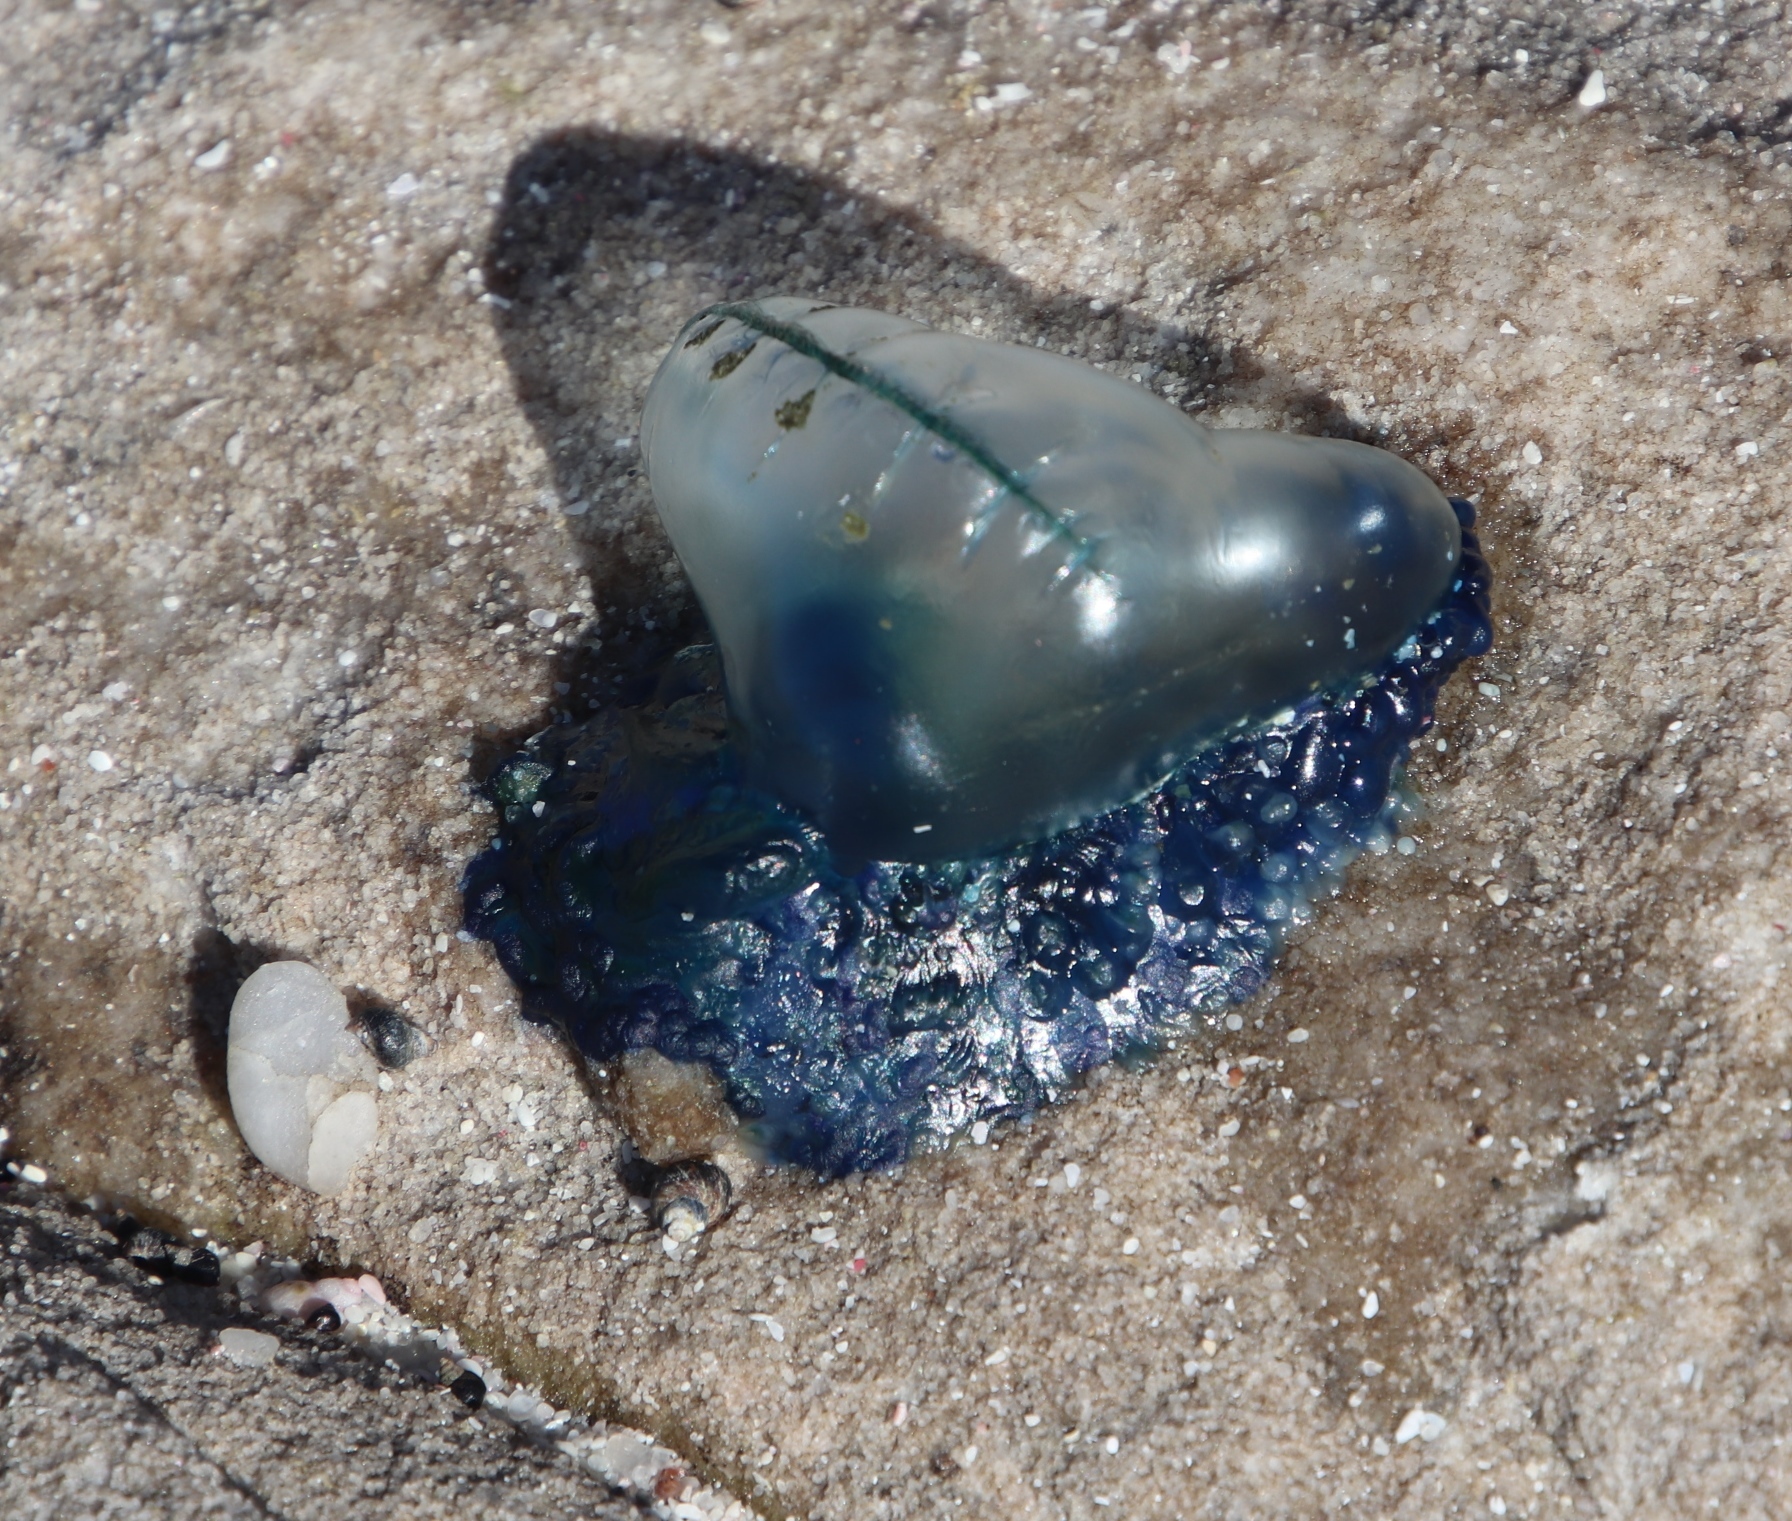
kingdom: Animalia
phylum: Cnidaria
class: Hydrozoa
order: Siphonophorae
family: Physaliidae
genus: Physalia
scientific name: Physalia physalis
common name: Portuguese man-of-war
